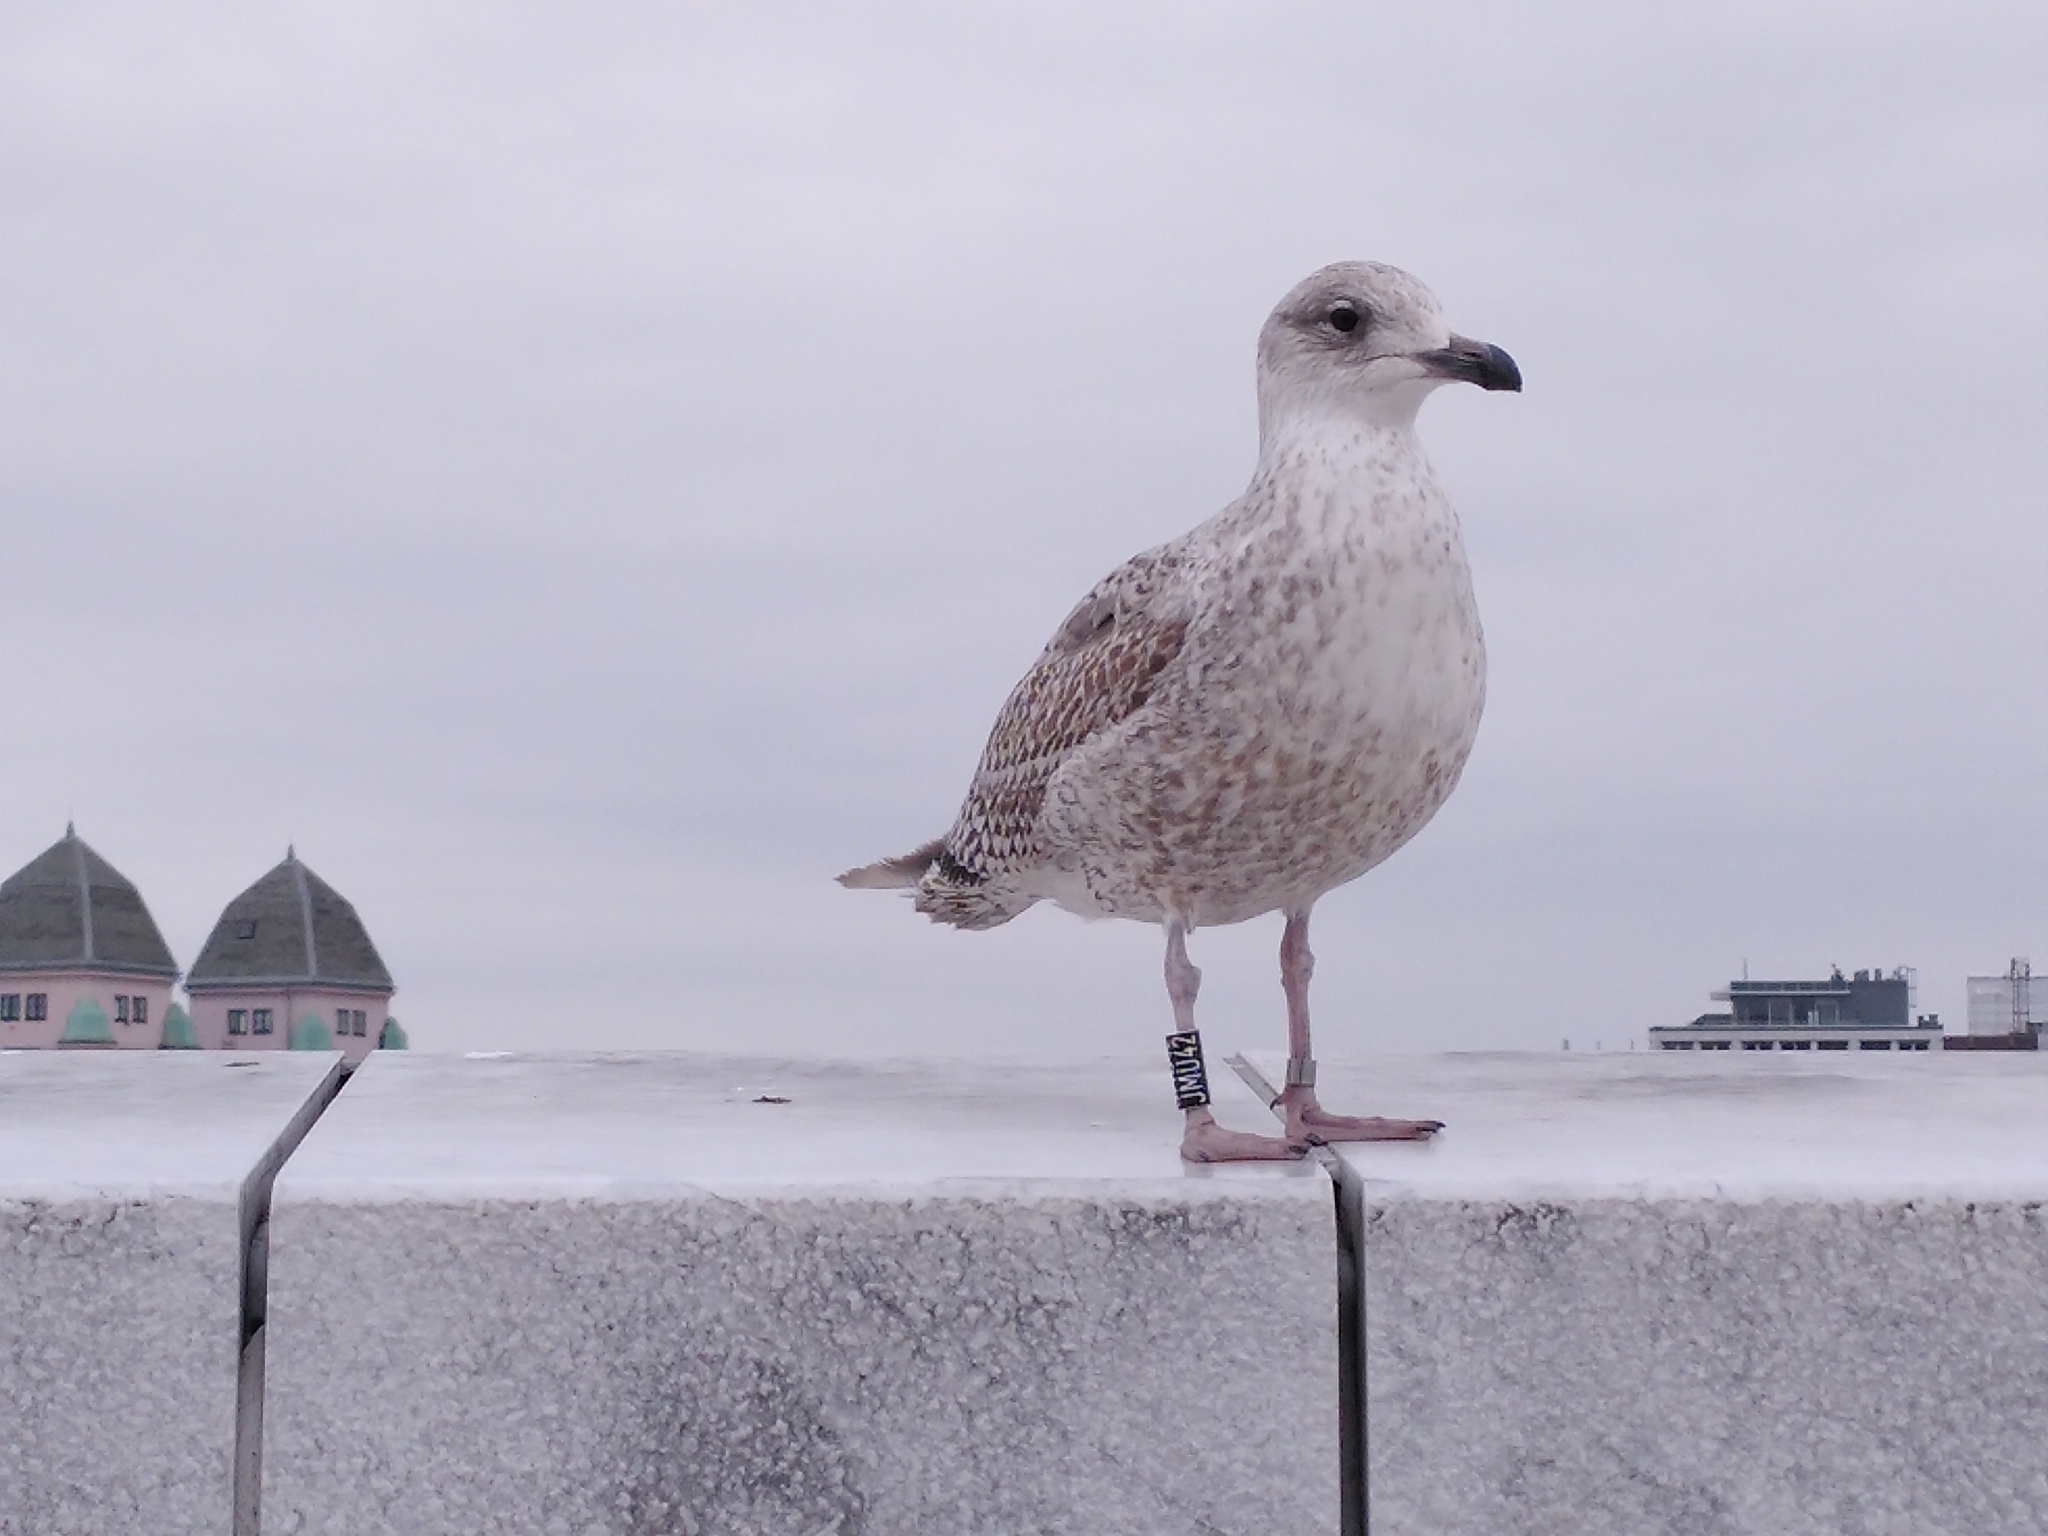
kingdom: Animalia
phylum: Chordata
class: Aves
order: Charadriiformes
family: Laridae
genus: Larus
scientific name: Larus argentatus
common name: Herring gull
